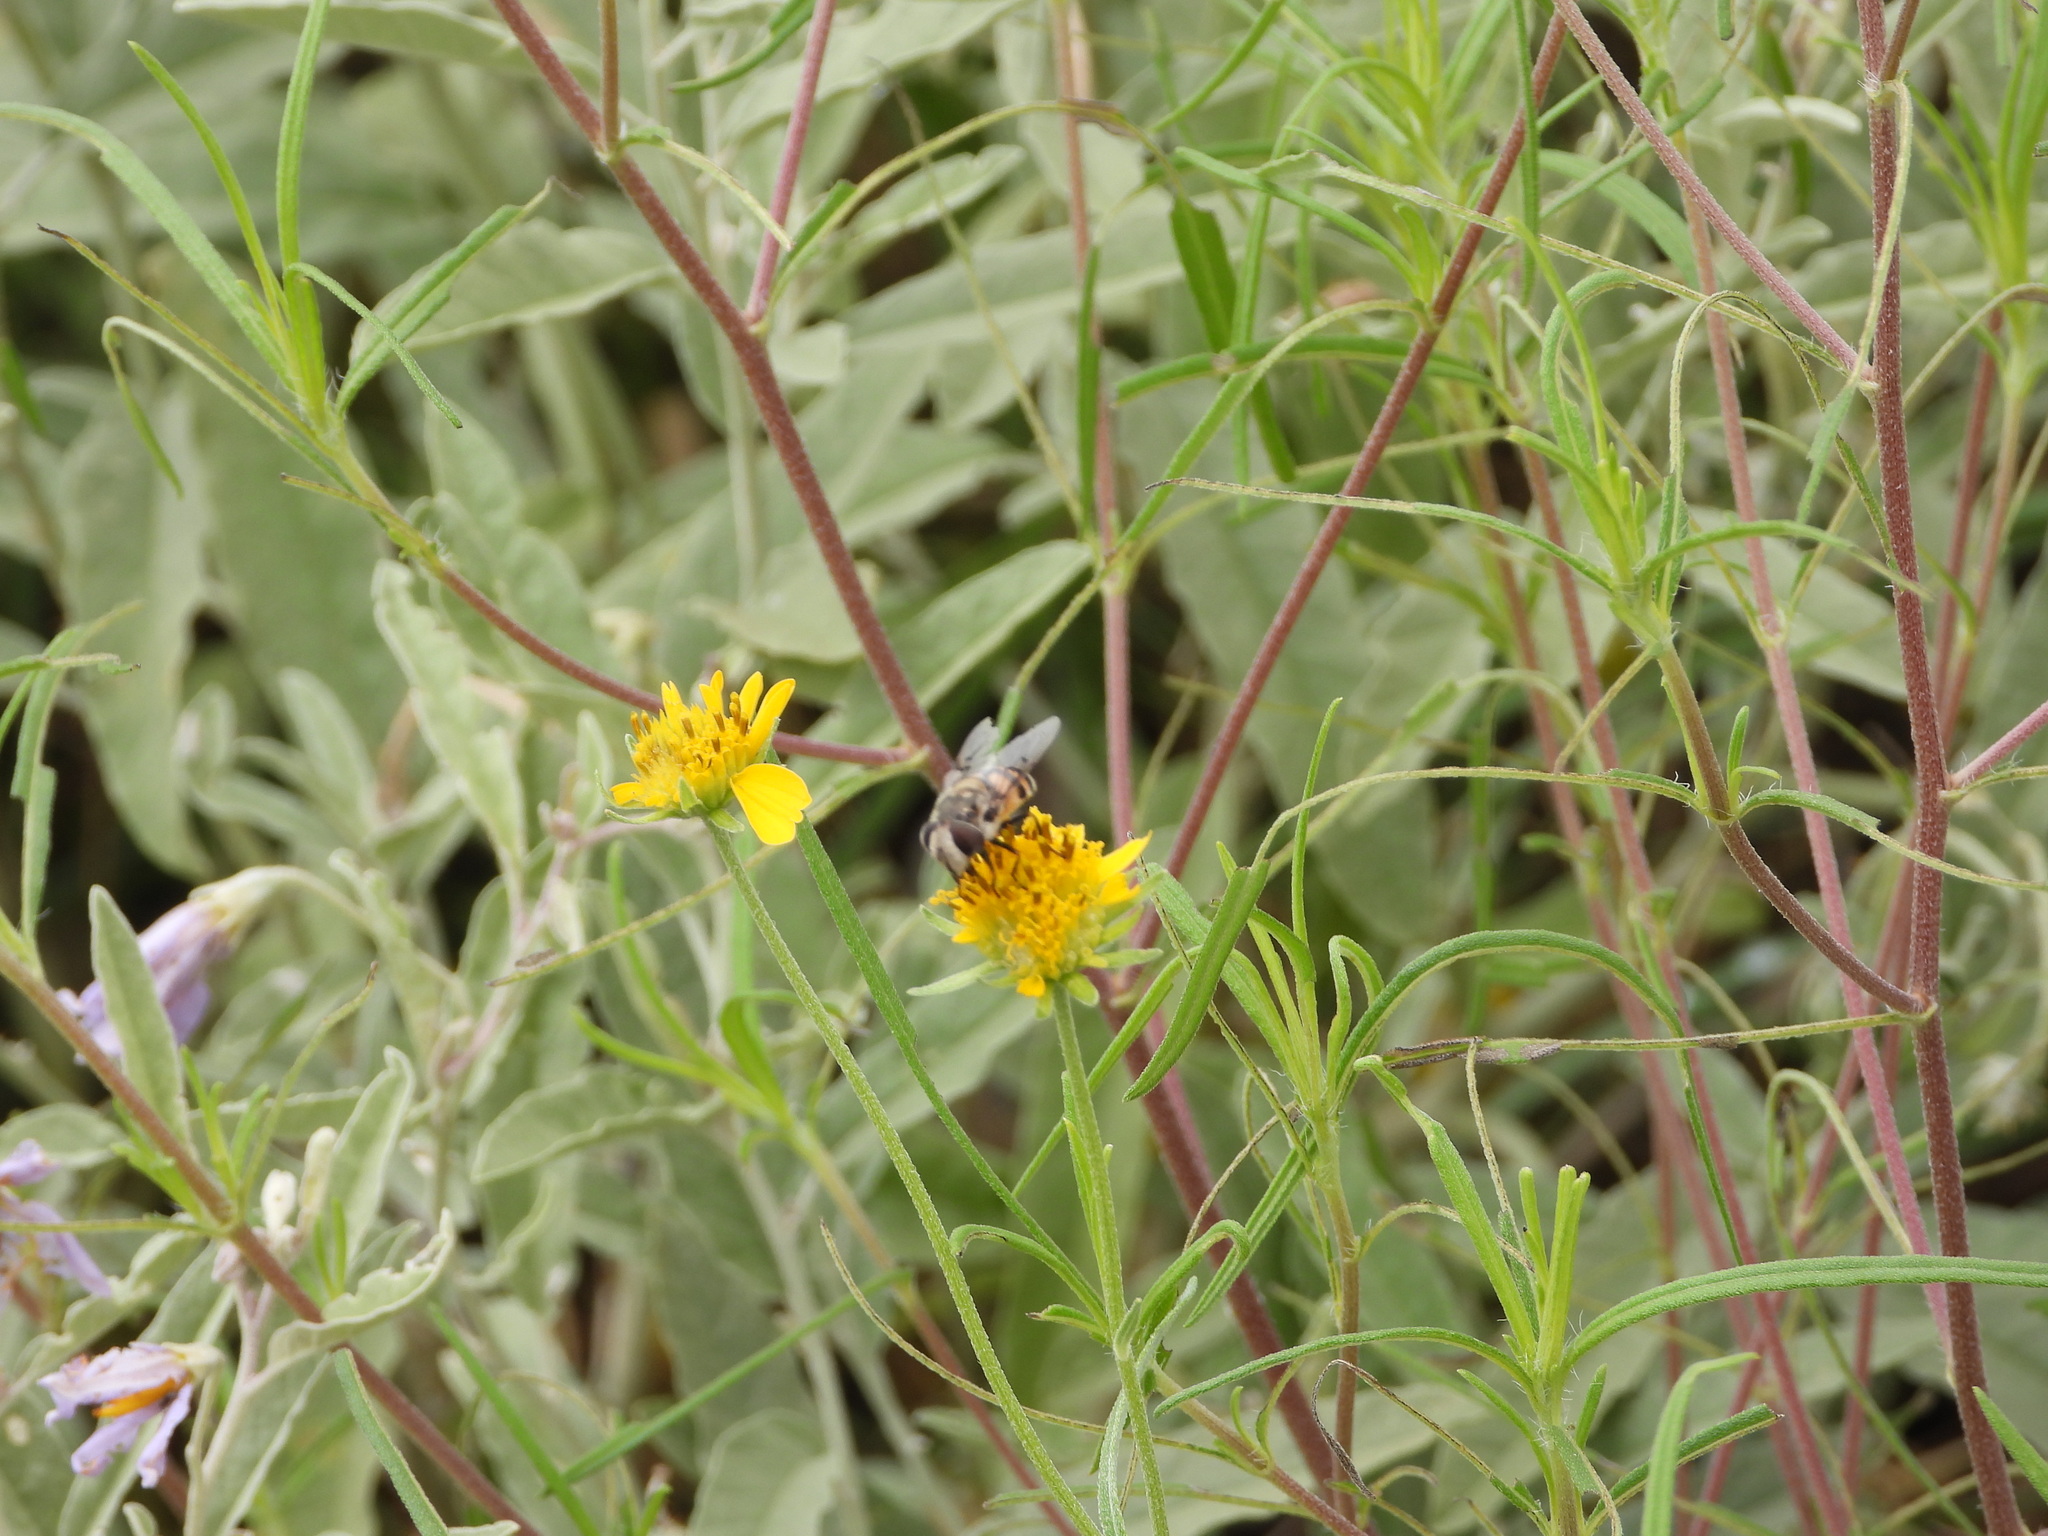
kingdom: Animalia
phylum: Arthropoda
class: Insecta
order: Diptera
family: Syrphidae
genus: Copestylum
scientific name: Copestylum avidum
